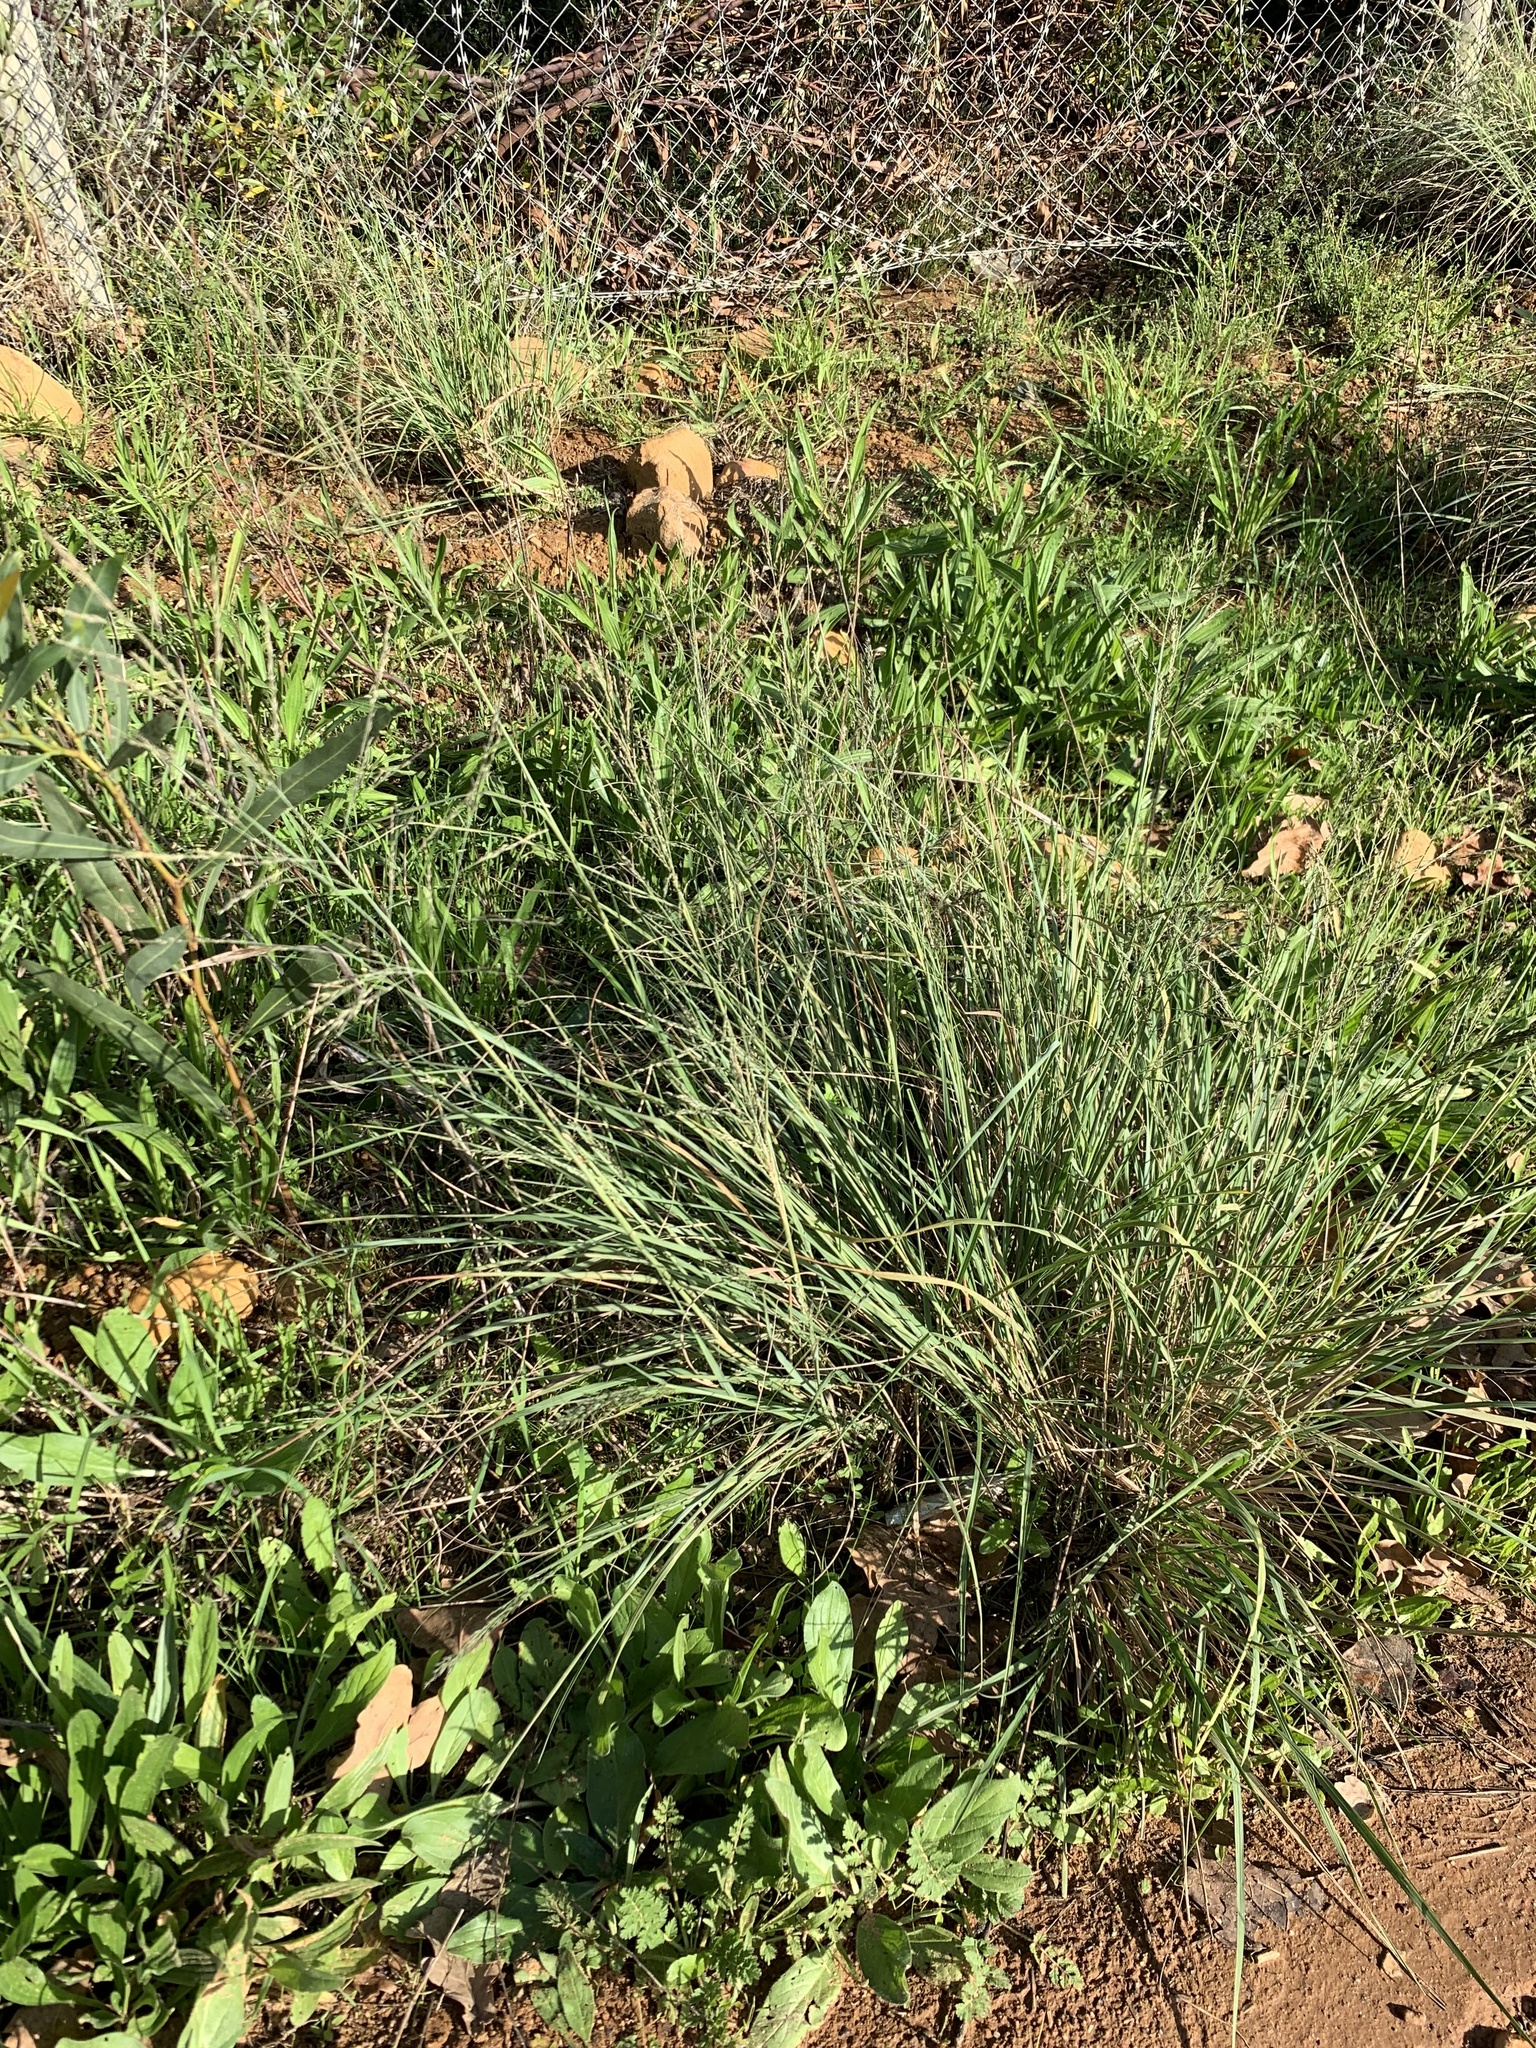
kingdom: Plantae
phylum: Tracheophyta
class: Liliopsida
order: Poales
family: Poaceae
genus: Eragrostis
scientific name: Eragrostis curvula
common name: African love-grass
